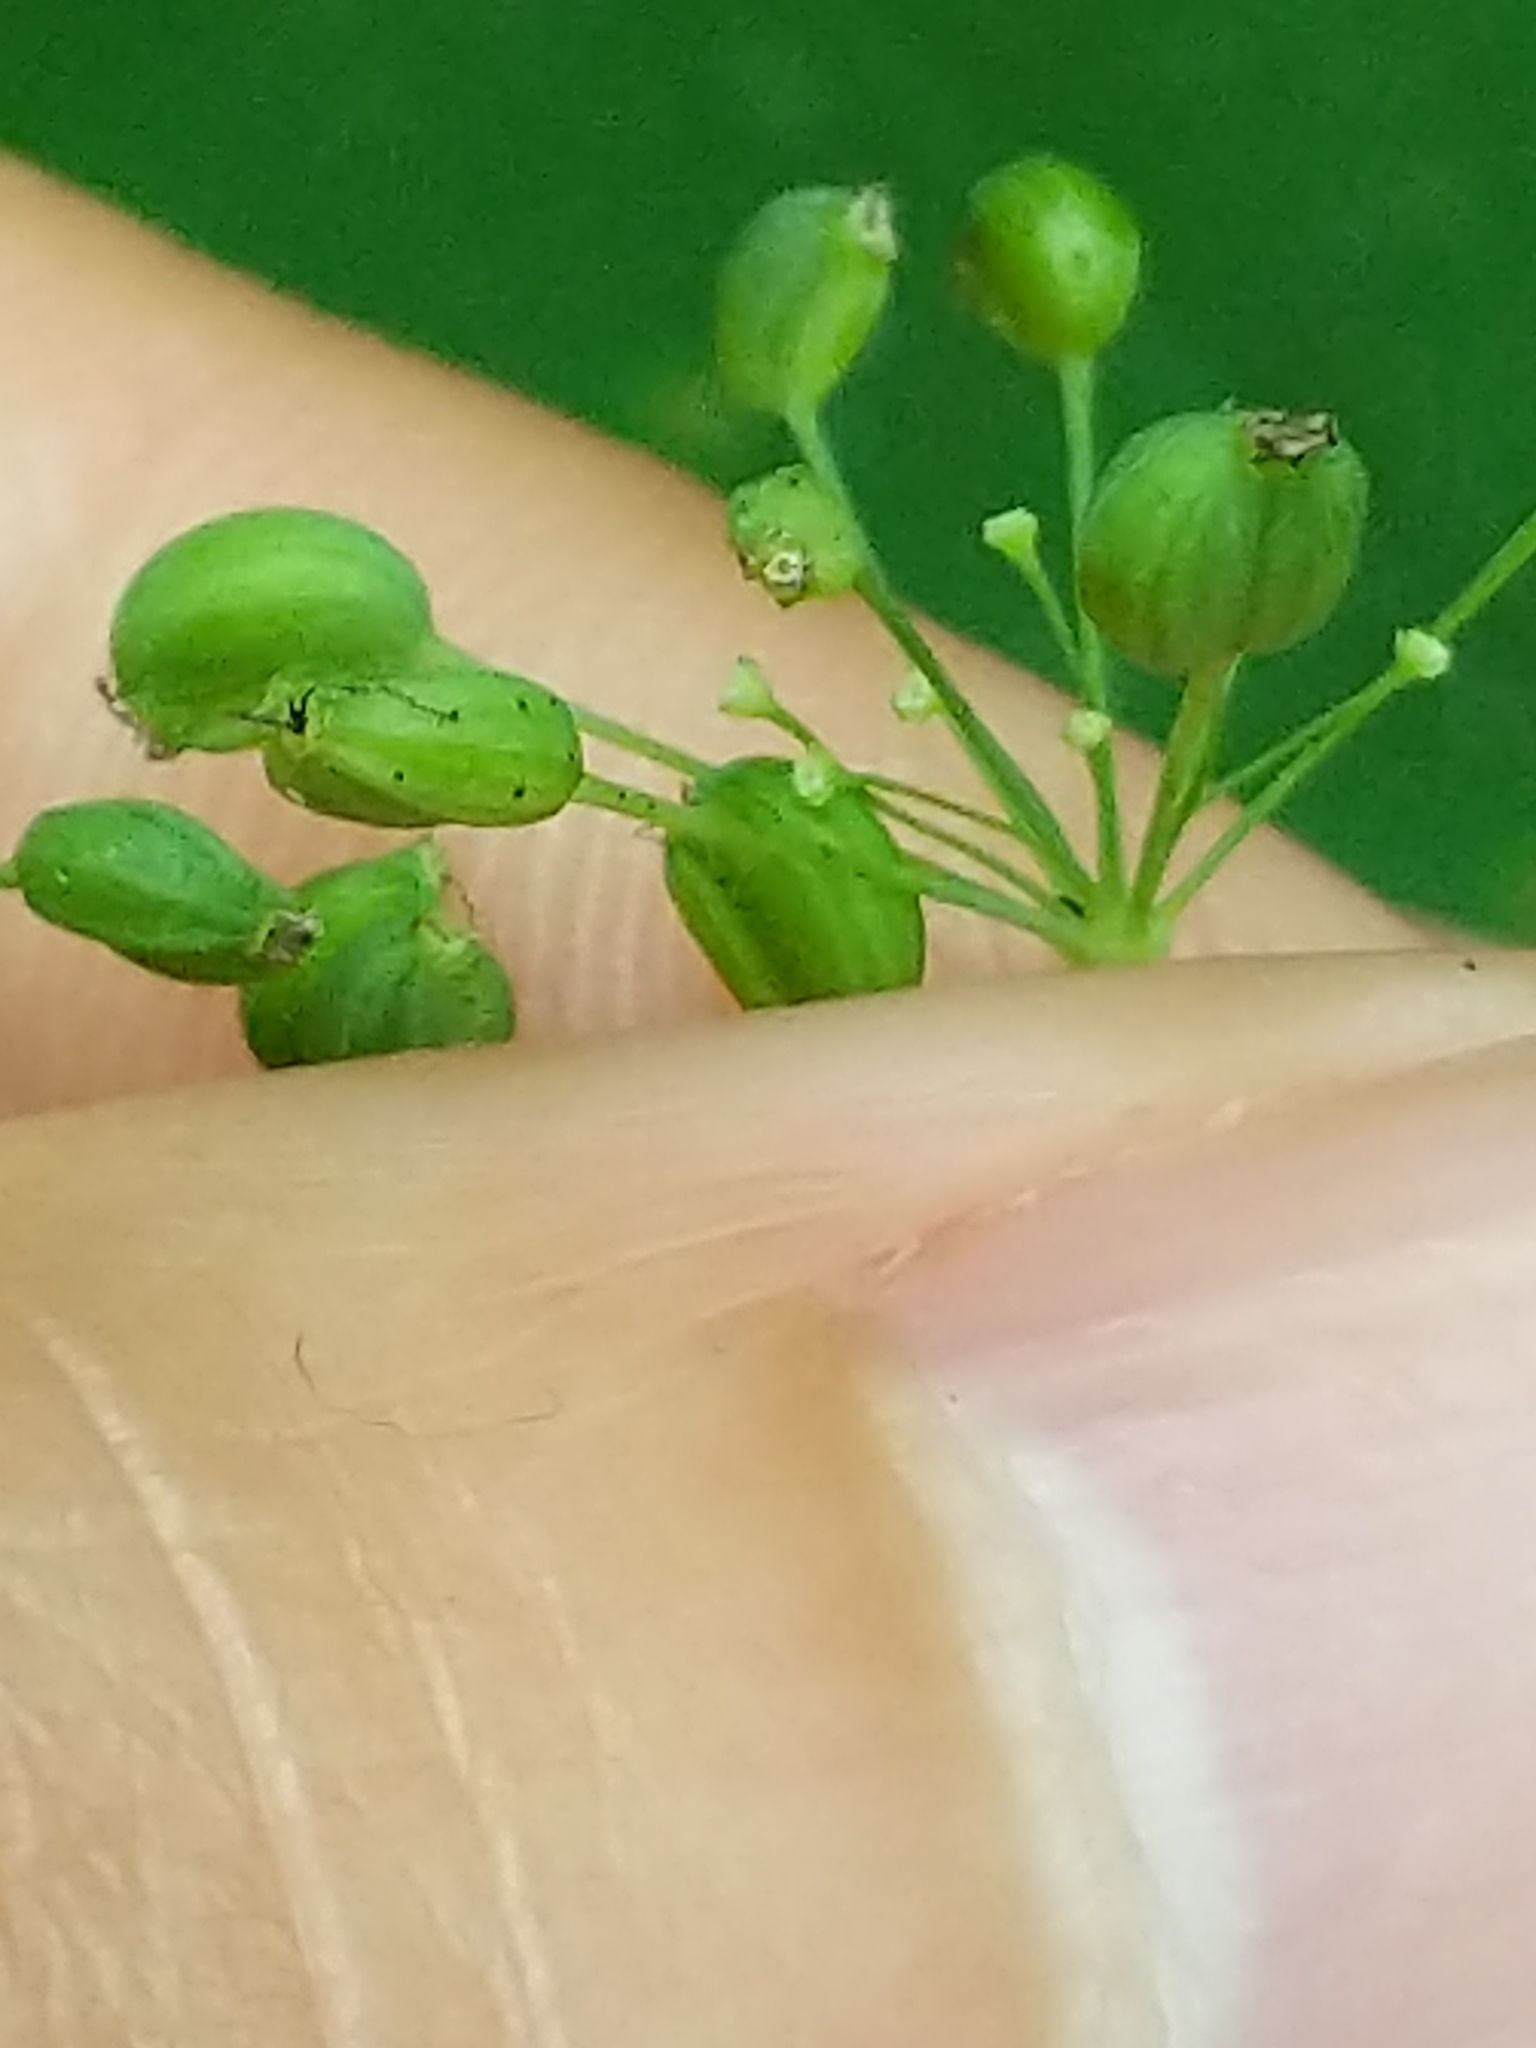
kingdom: Plantae
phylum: Tracheophyta
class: Magnoliopsida
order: Apiales
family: Apiaceae
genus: Taenidia
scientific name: Taenidia integerrima
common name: Golden alexander
